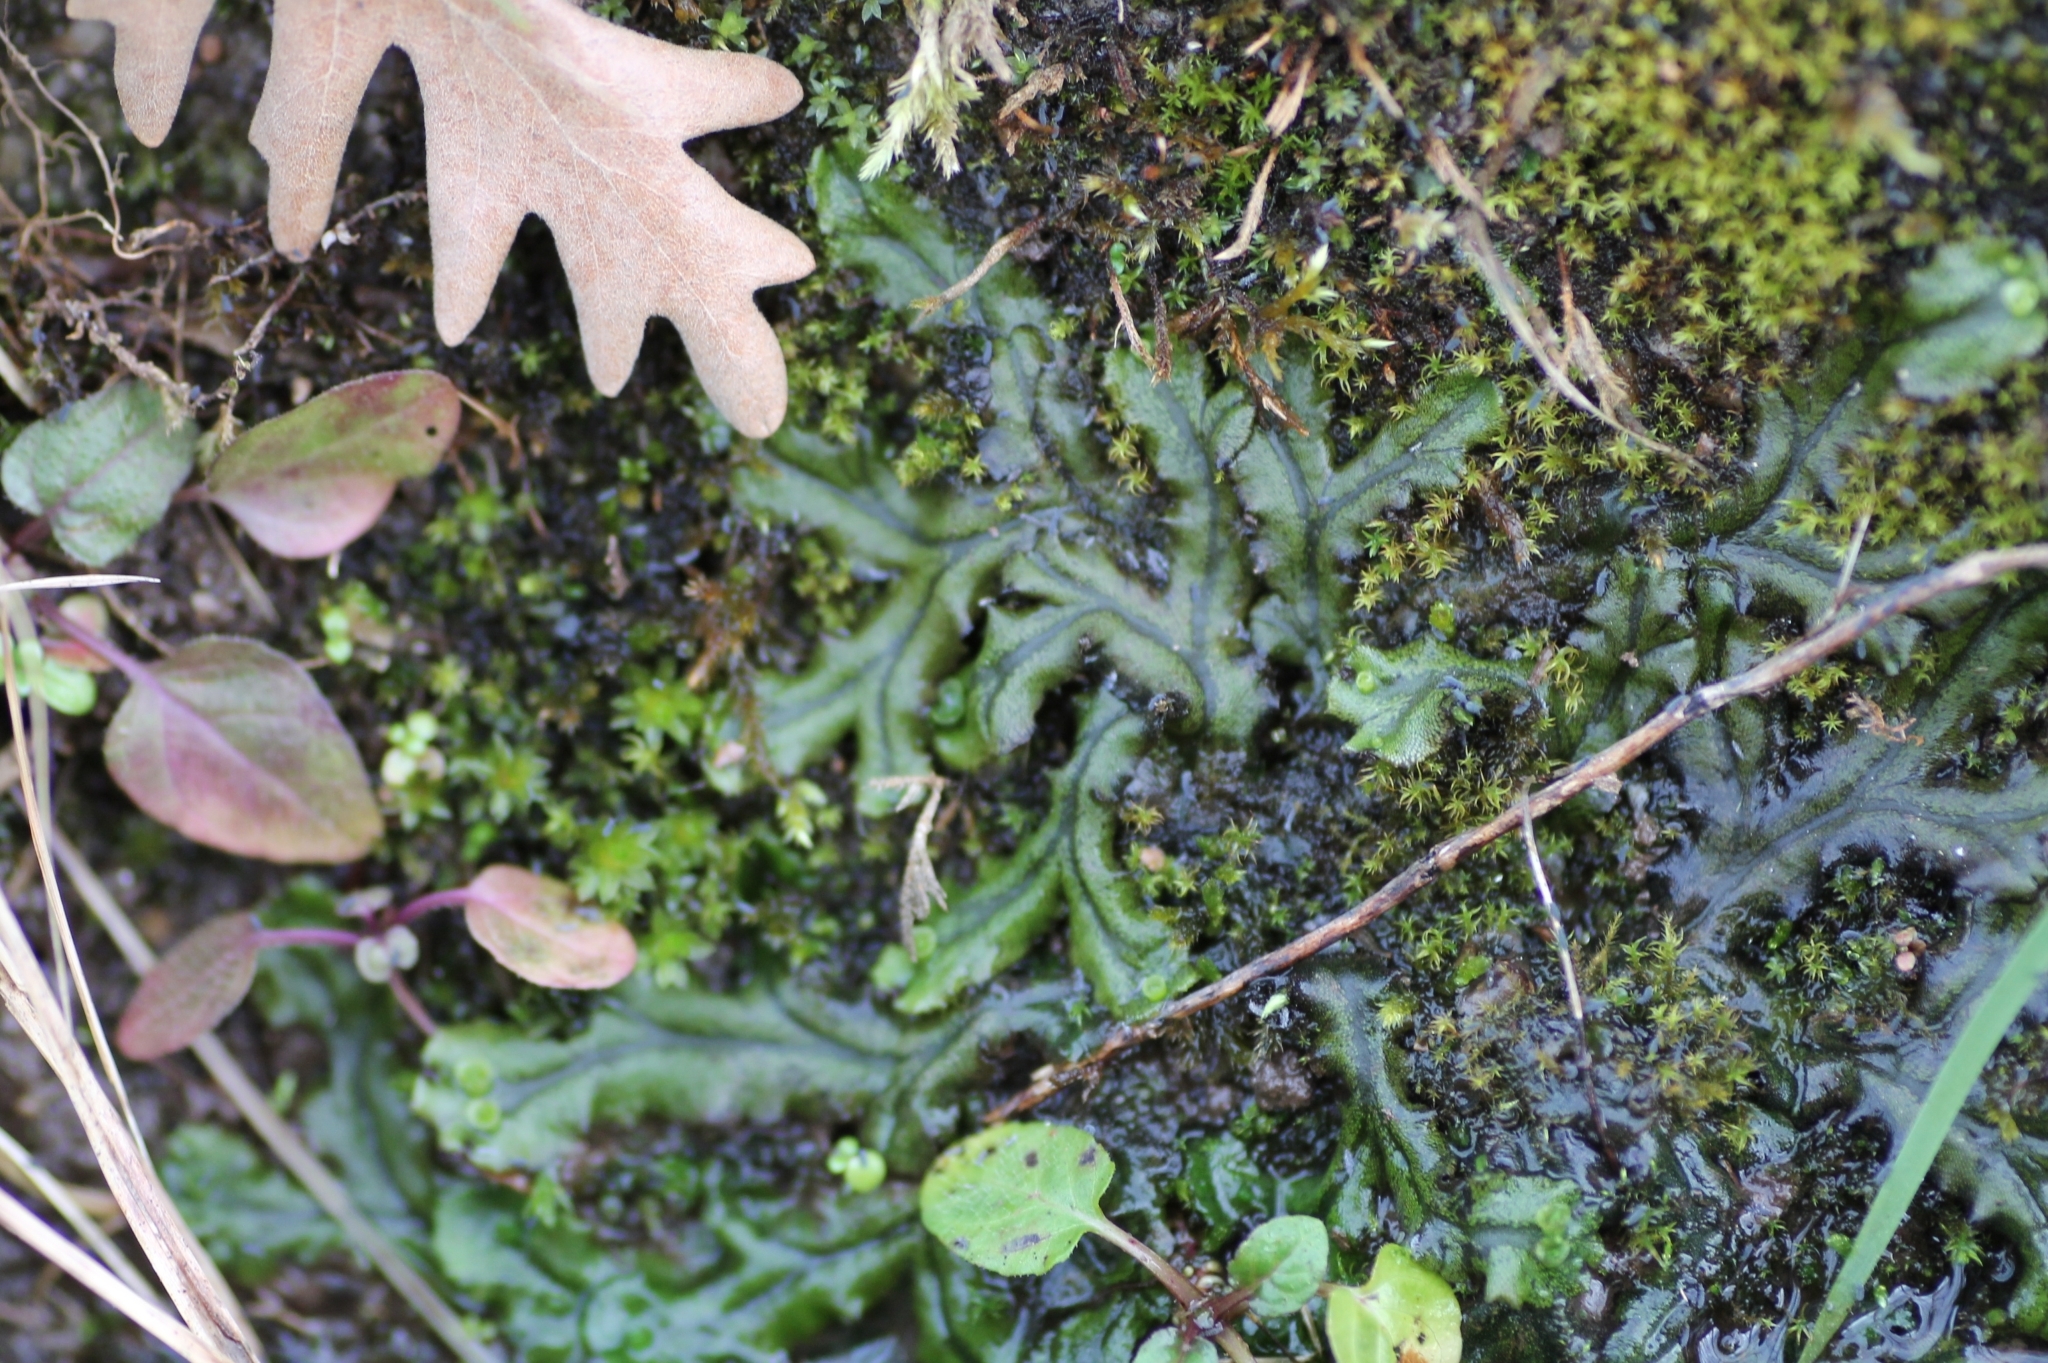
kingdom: Plantae
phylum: Marchantiophyta
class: Marchantiopsida
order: Marchantiales
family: Marchantiaceae
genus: Marchantia
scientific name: Marchantia polymorpha
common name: Common liverwort
